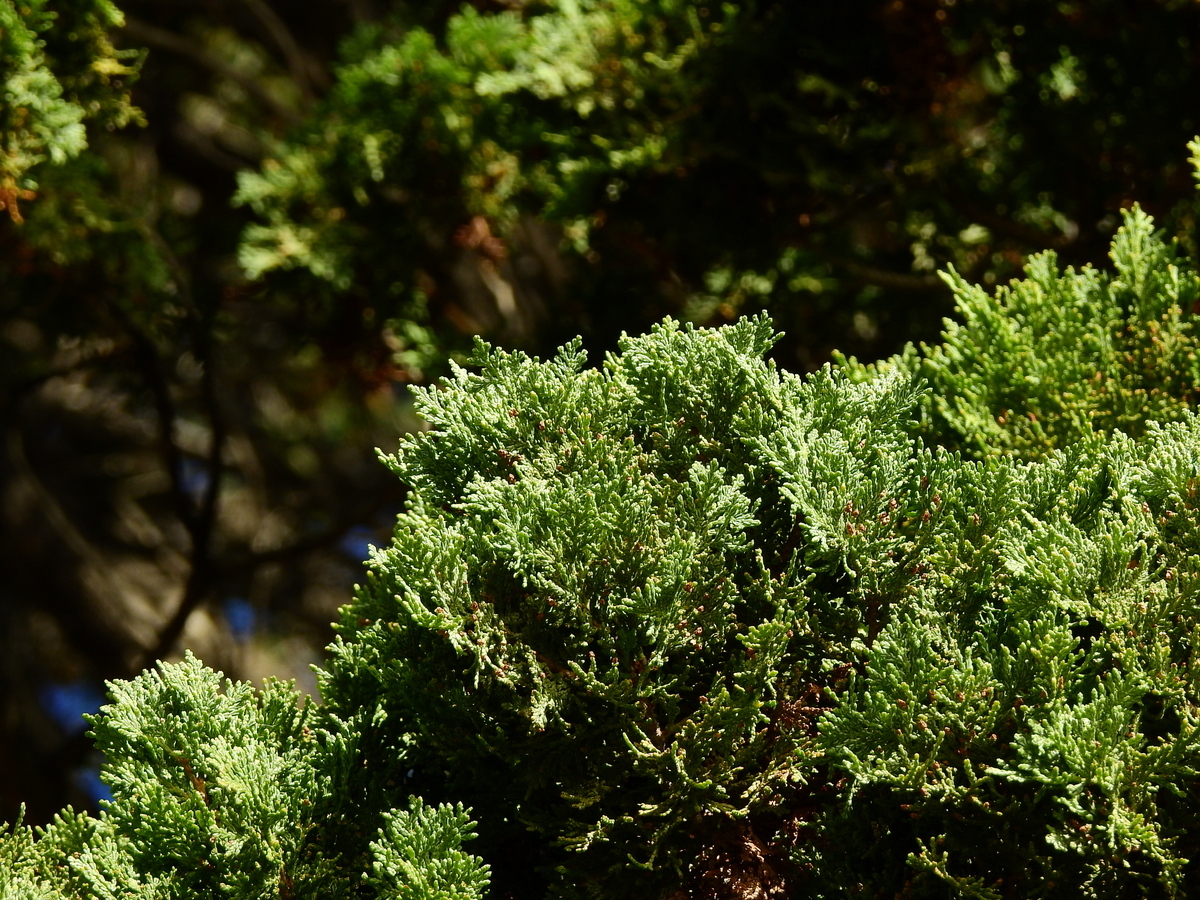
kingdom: Plantae
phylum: Tracheophyta
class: Pinopsida
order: Pinales
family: Cupressaceae
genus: Austrocedrus
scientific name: Austrocedrus chilensis
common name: Chilean incense-cedar
